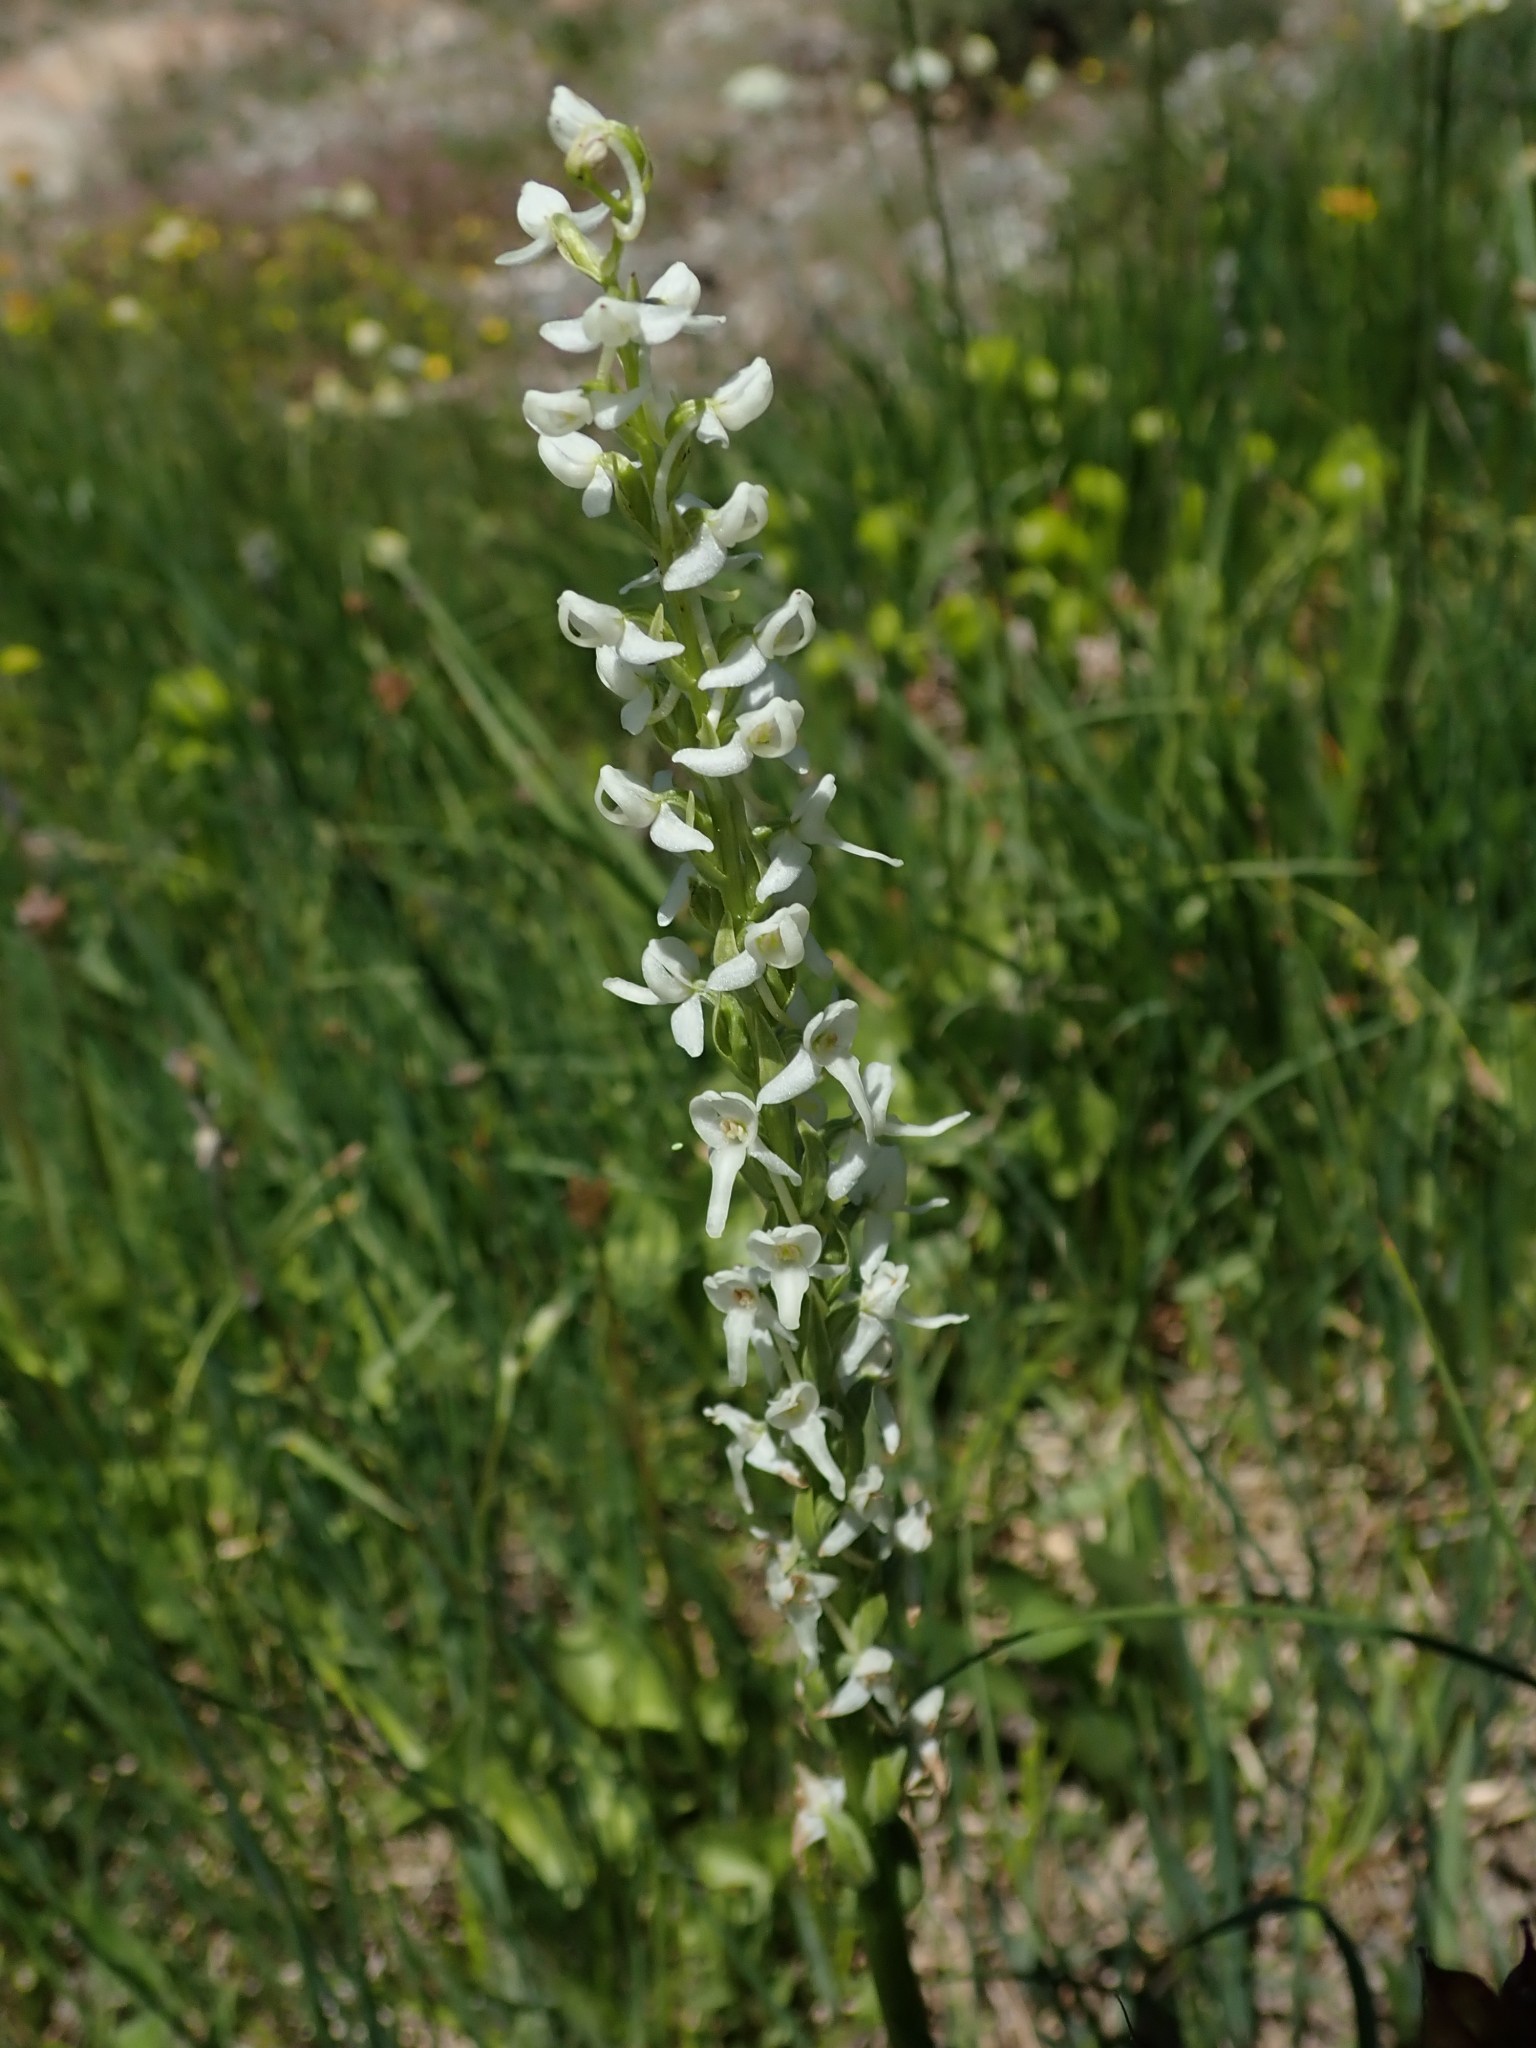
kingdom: Plantae
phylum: Tracheophyta
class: Liliopsida
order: Asparagales
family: Orchidaceae
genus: Platanthera
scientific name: Platanthera dilatata
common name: Bog candles
